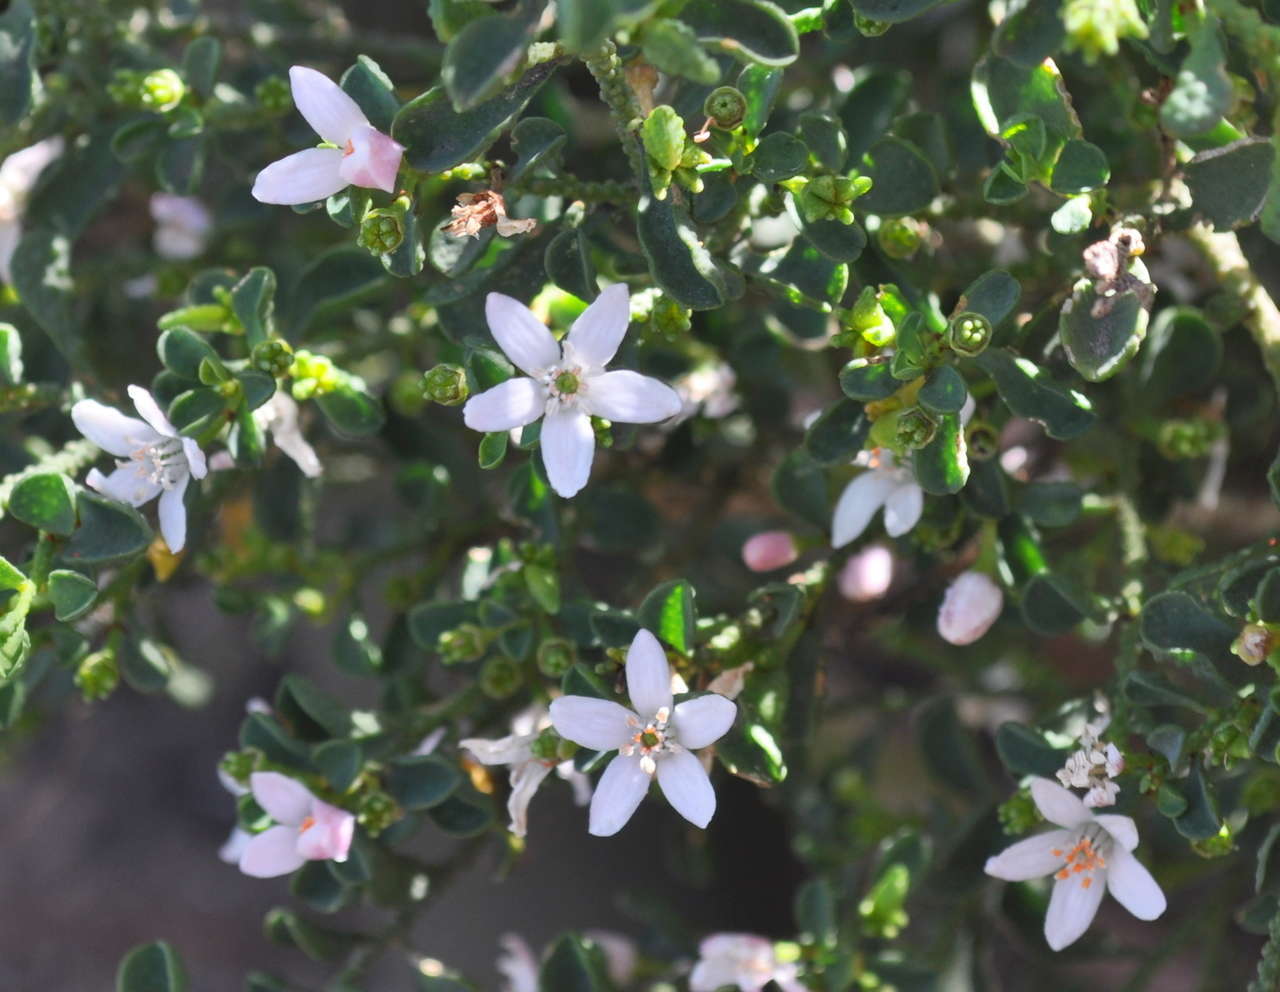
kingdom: Plantae
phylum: Tracheophyta
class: Magnoliopsida
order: Sapindales
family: Rutaceae
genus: Philotheca
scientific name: Philotheca verrucosa
